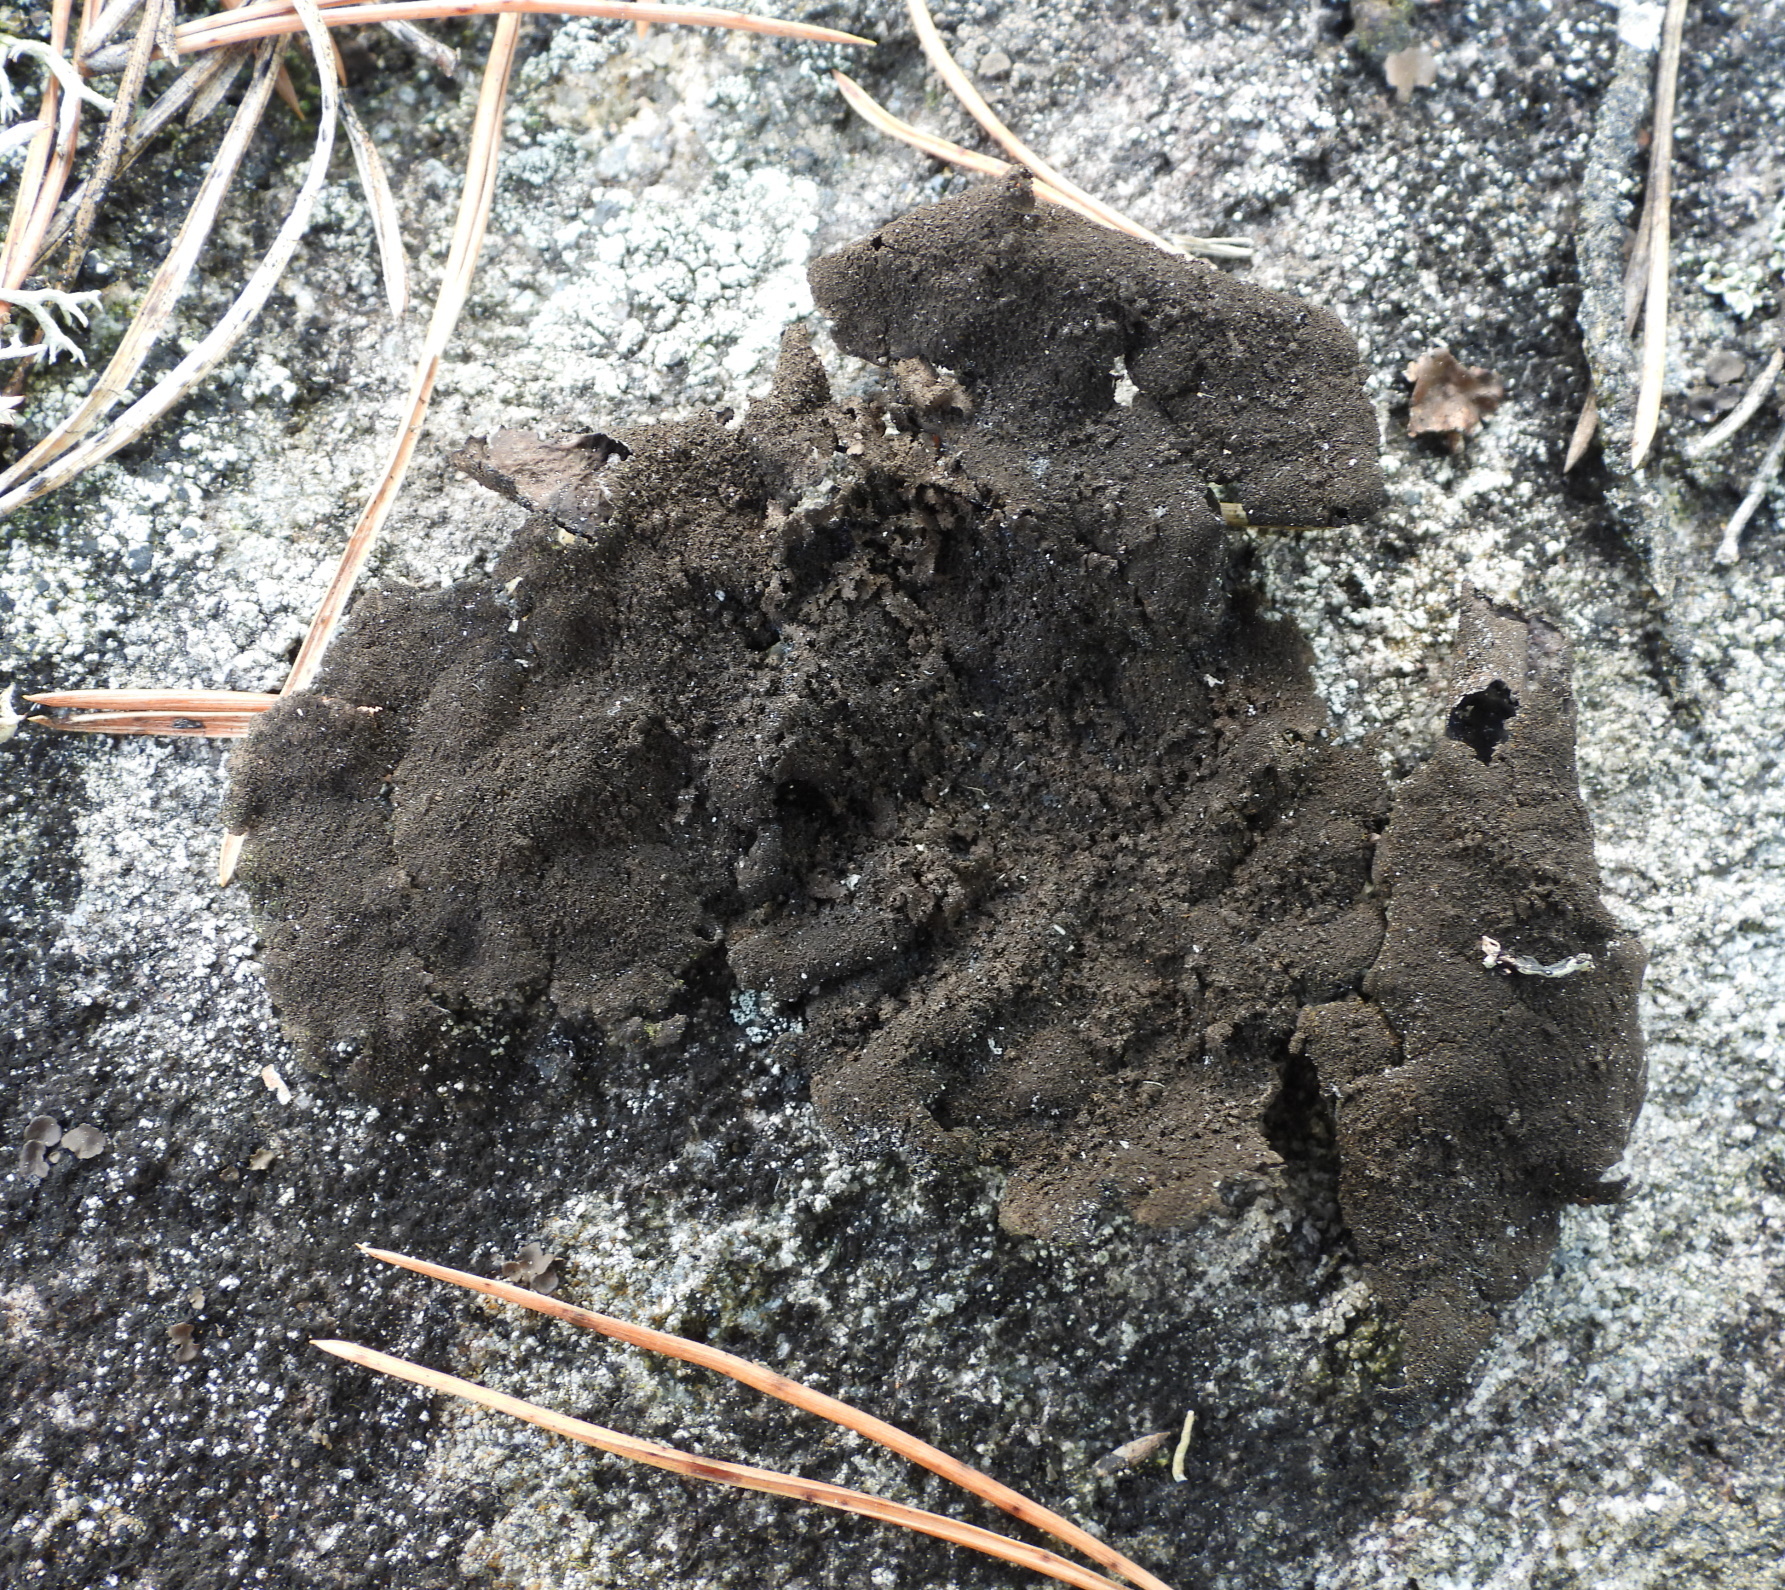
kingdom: Fungi
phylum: Ascomycota
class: Lecanoromycetes
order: Umbilicariales
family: Umbilicariaceae
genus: Umbilicaria
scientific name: Umbilicaria deusta
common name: Peppered rock tripe
